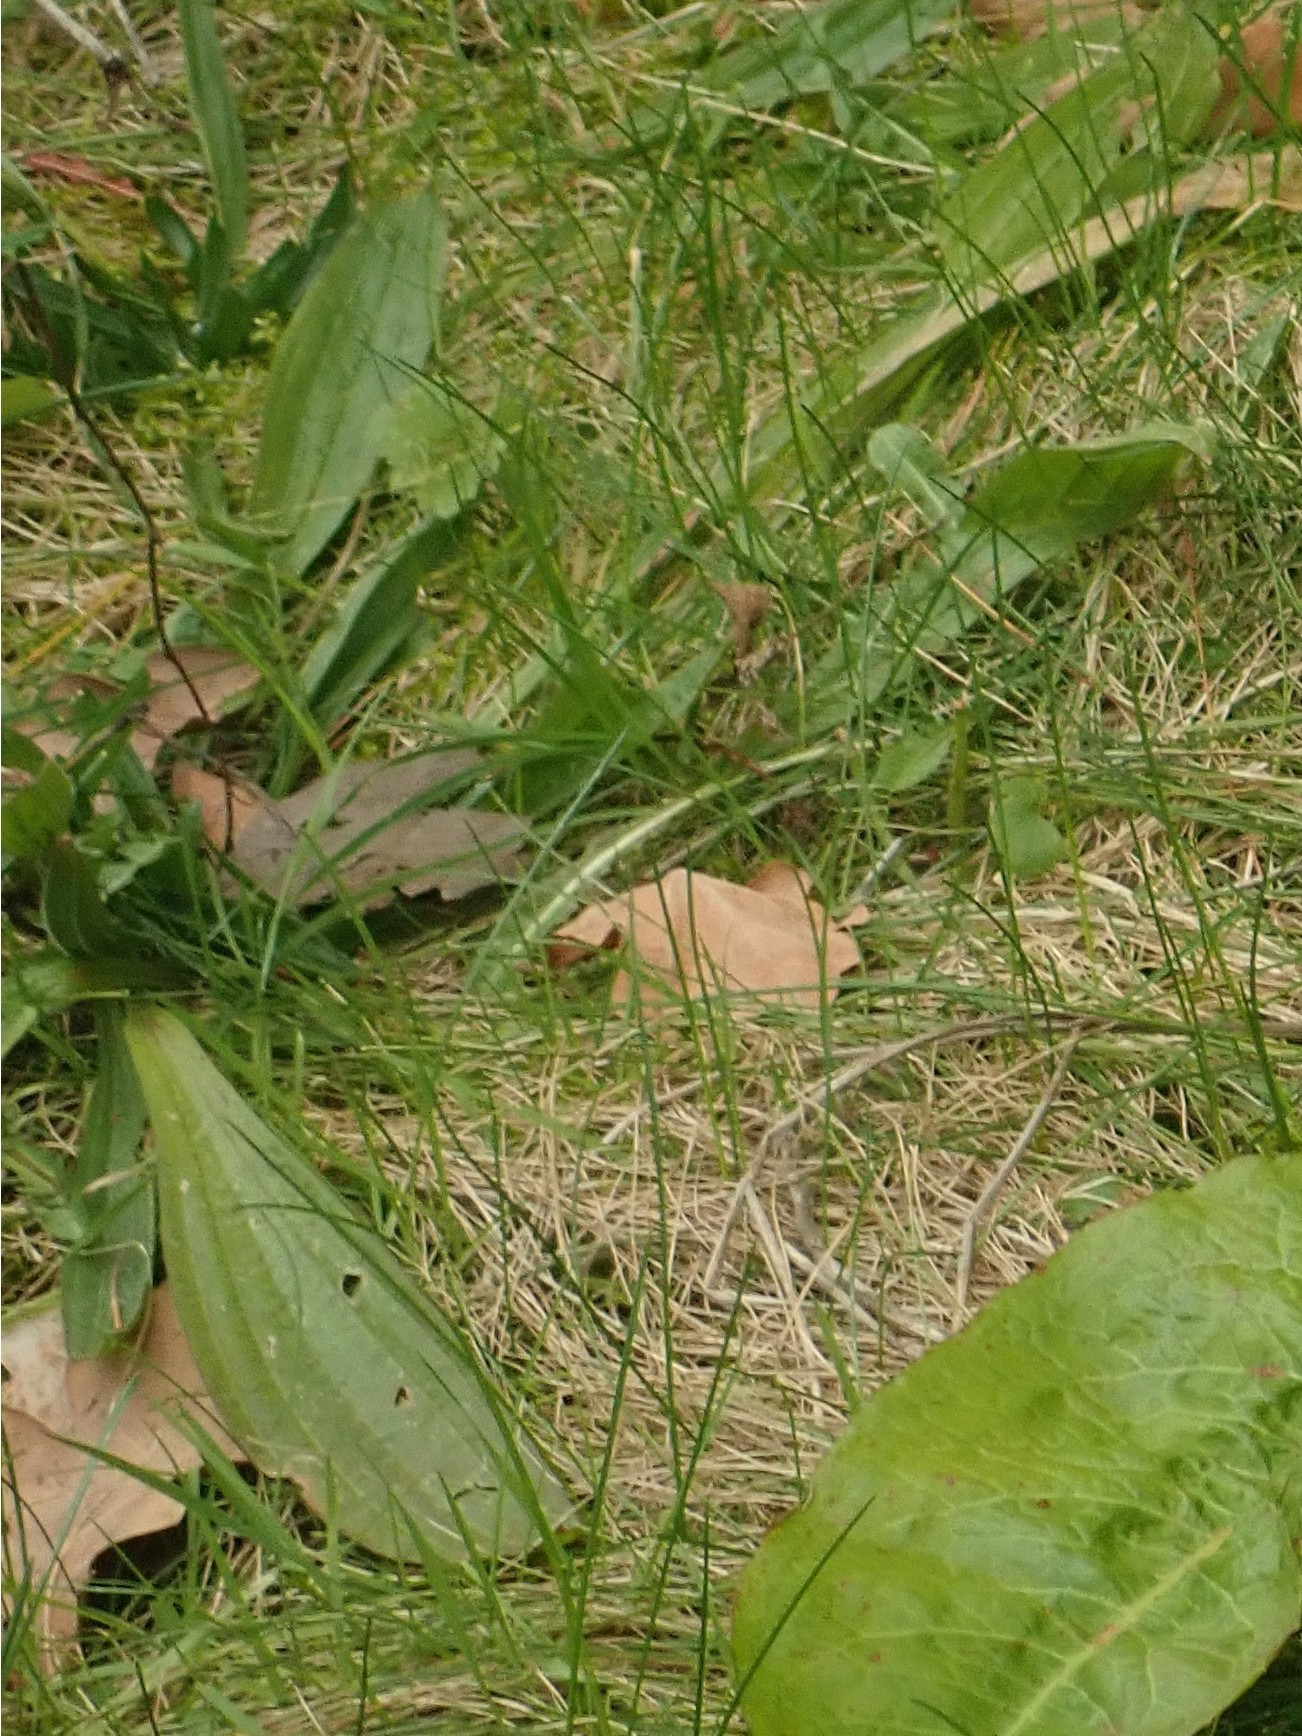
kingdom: Plantae
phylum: Tracheophyta
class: Magnoliopsida
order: Lamiales
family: Plantaginaceae
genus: Plantago
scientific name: Plantago lanceolata
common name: Ribwort plantain
